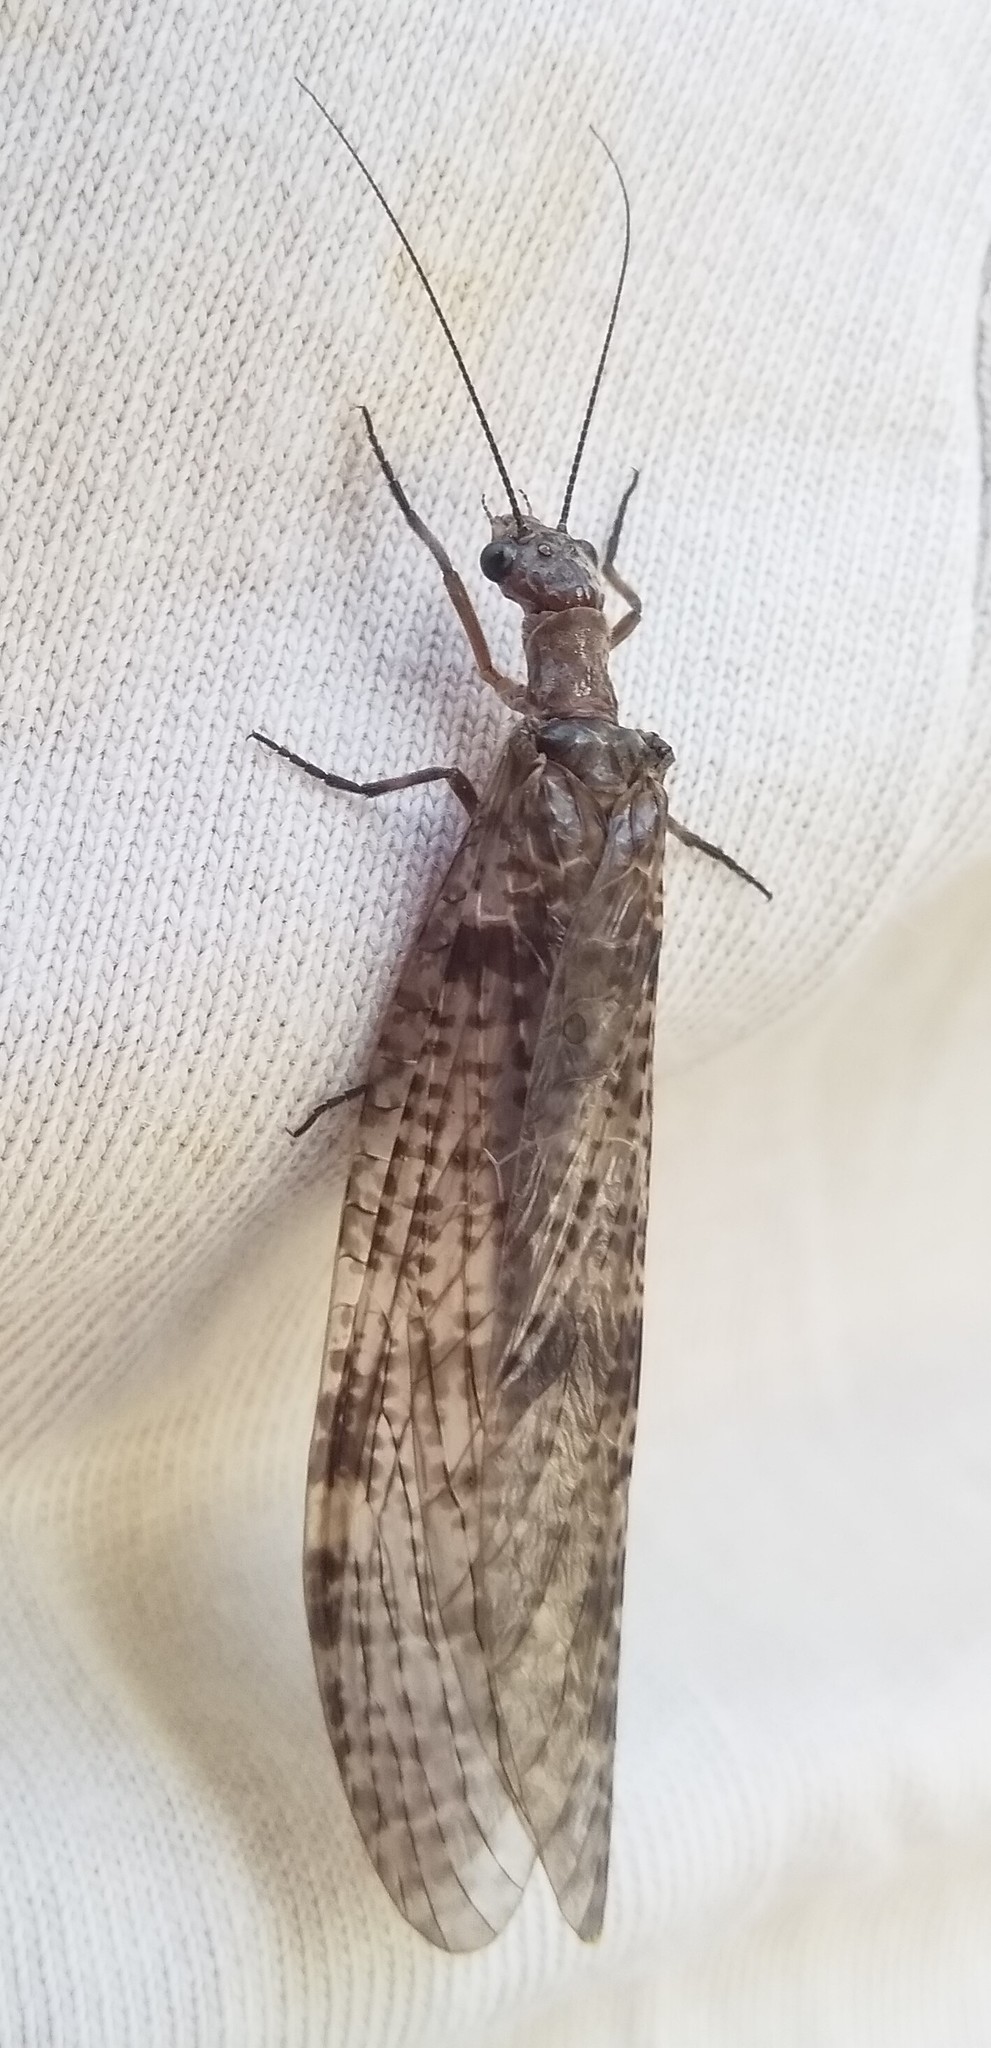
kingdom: Animalia
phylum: Arthropoda
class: Insecta
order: Megaloptera
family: Corydalidae
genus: Archichauliodes
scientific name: Archichauliodes diversus
